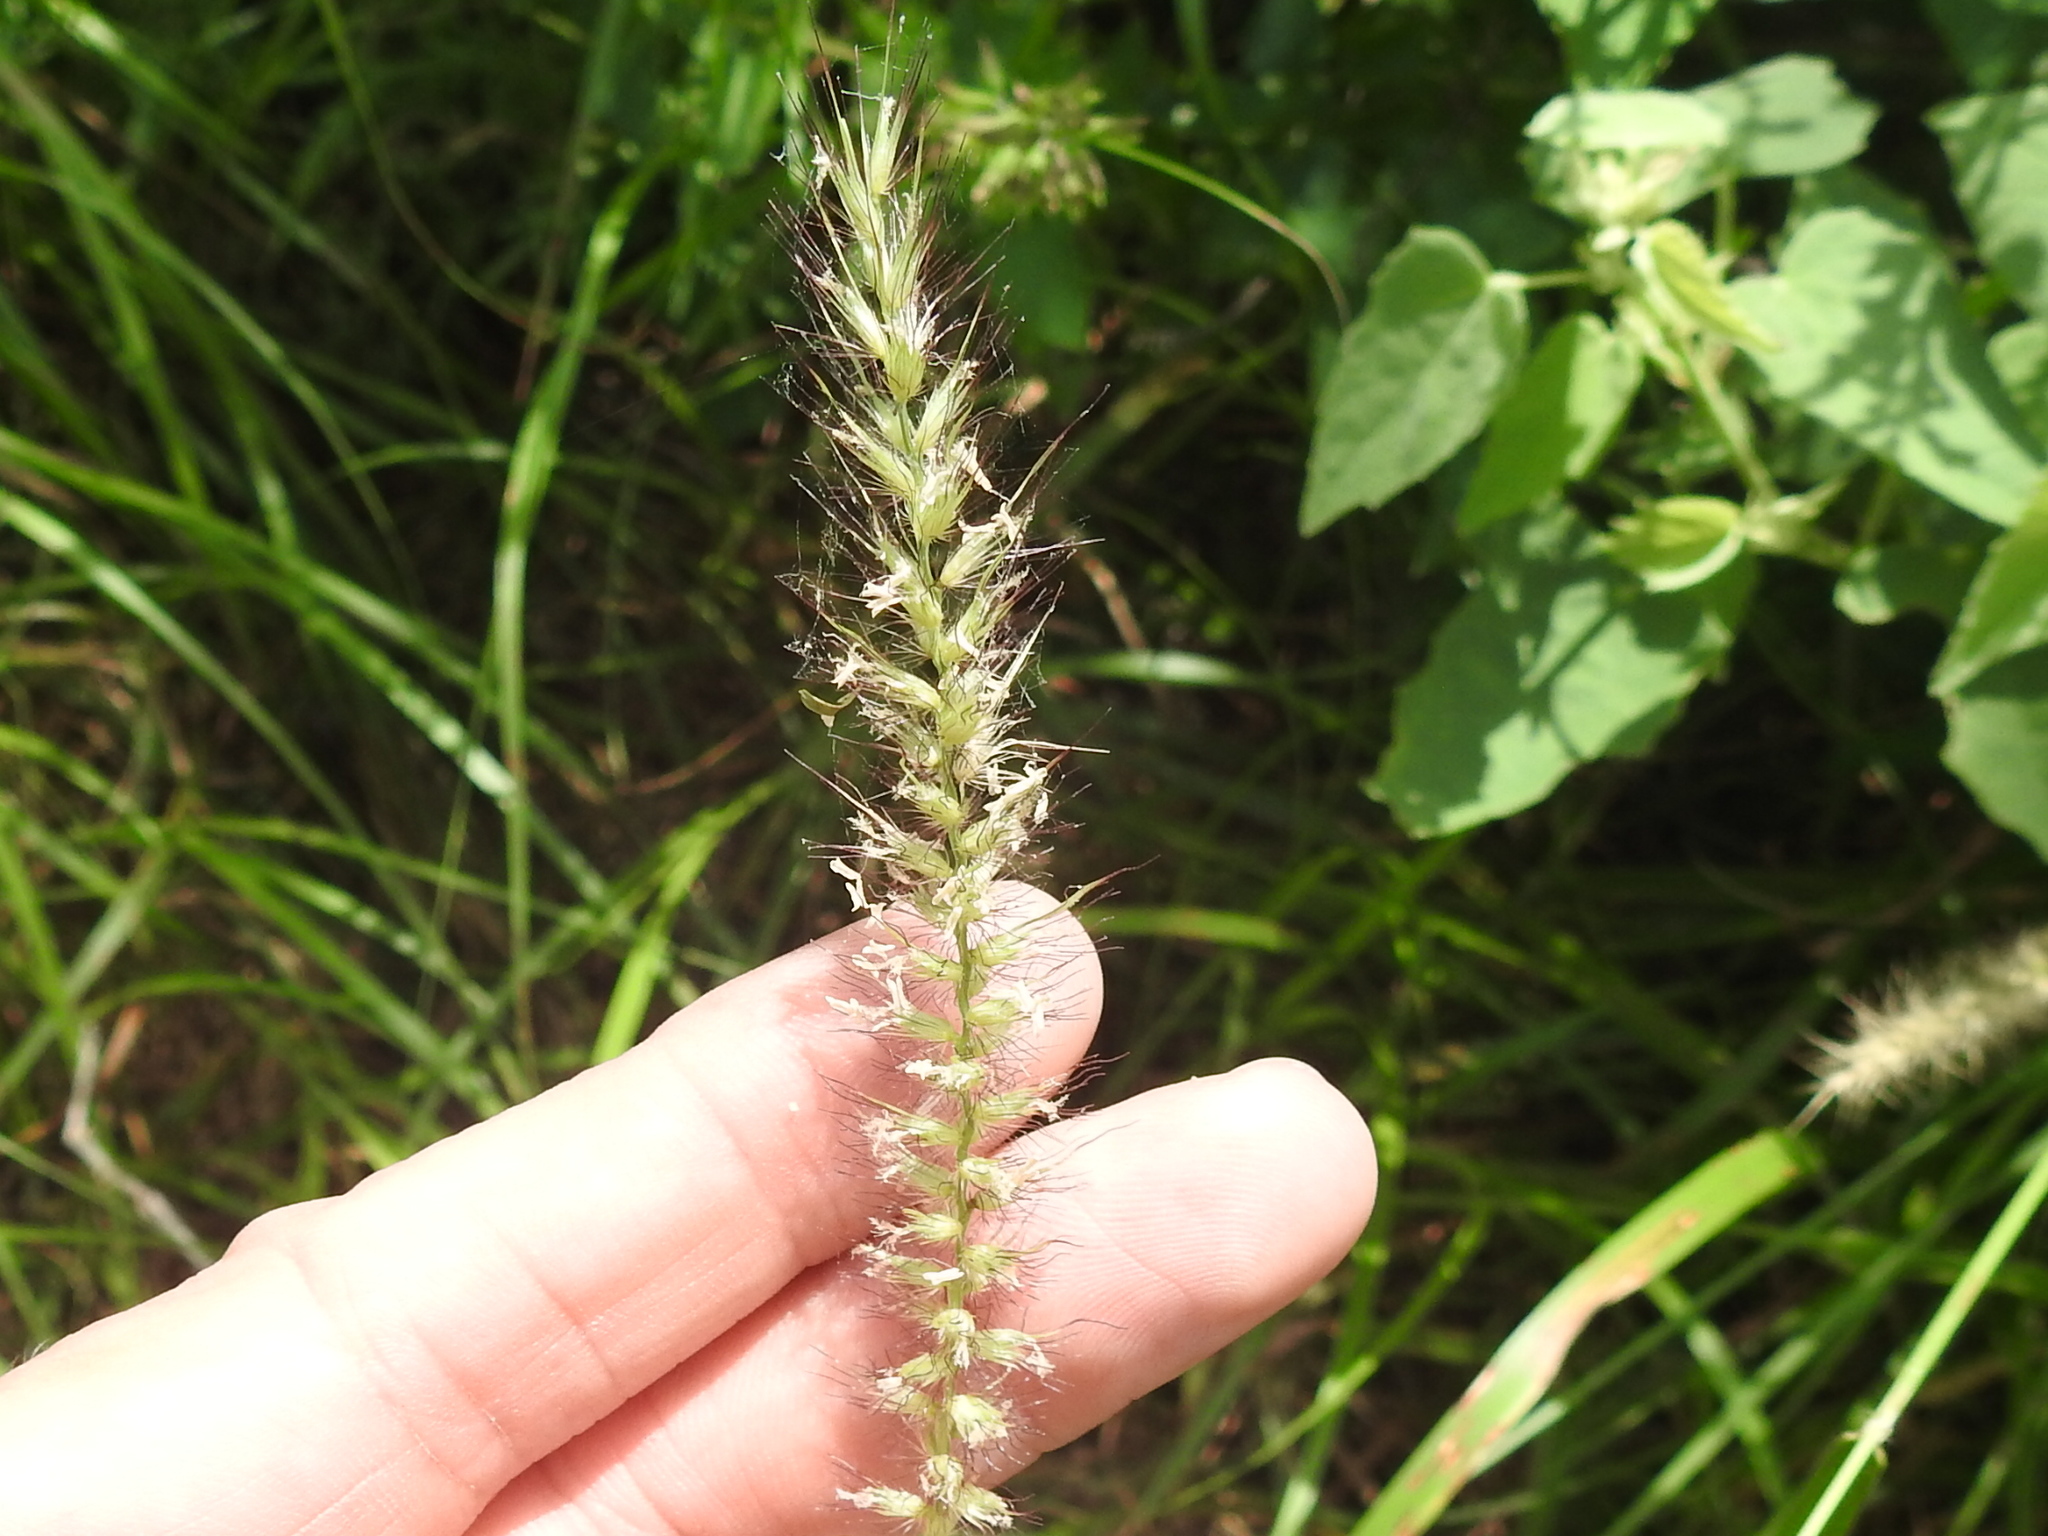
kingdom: Plantae
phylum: Tracheophyta
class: Liliopsida
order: Poales
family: Poaceae
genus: Cenchrus
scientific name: Cenchrus ciliaris
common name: Buffelgrass
